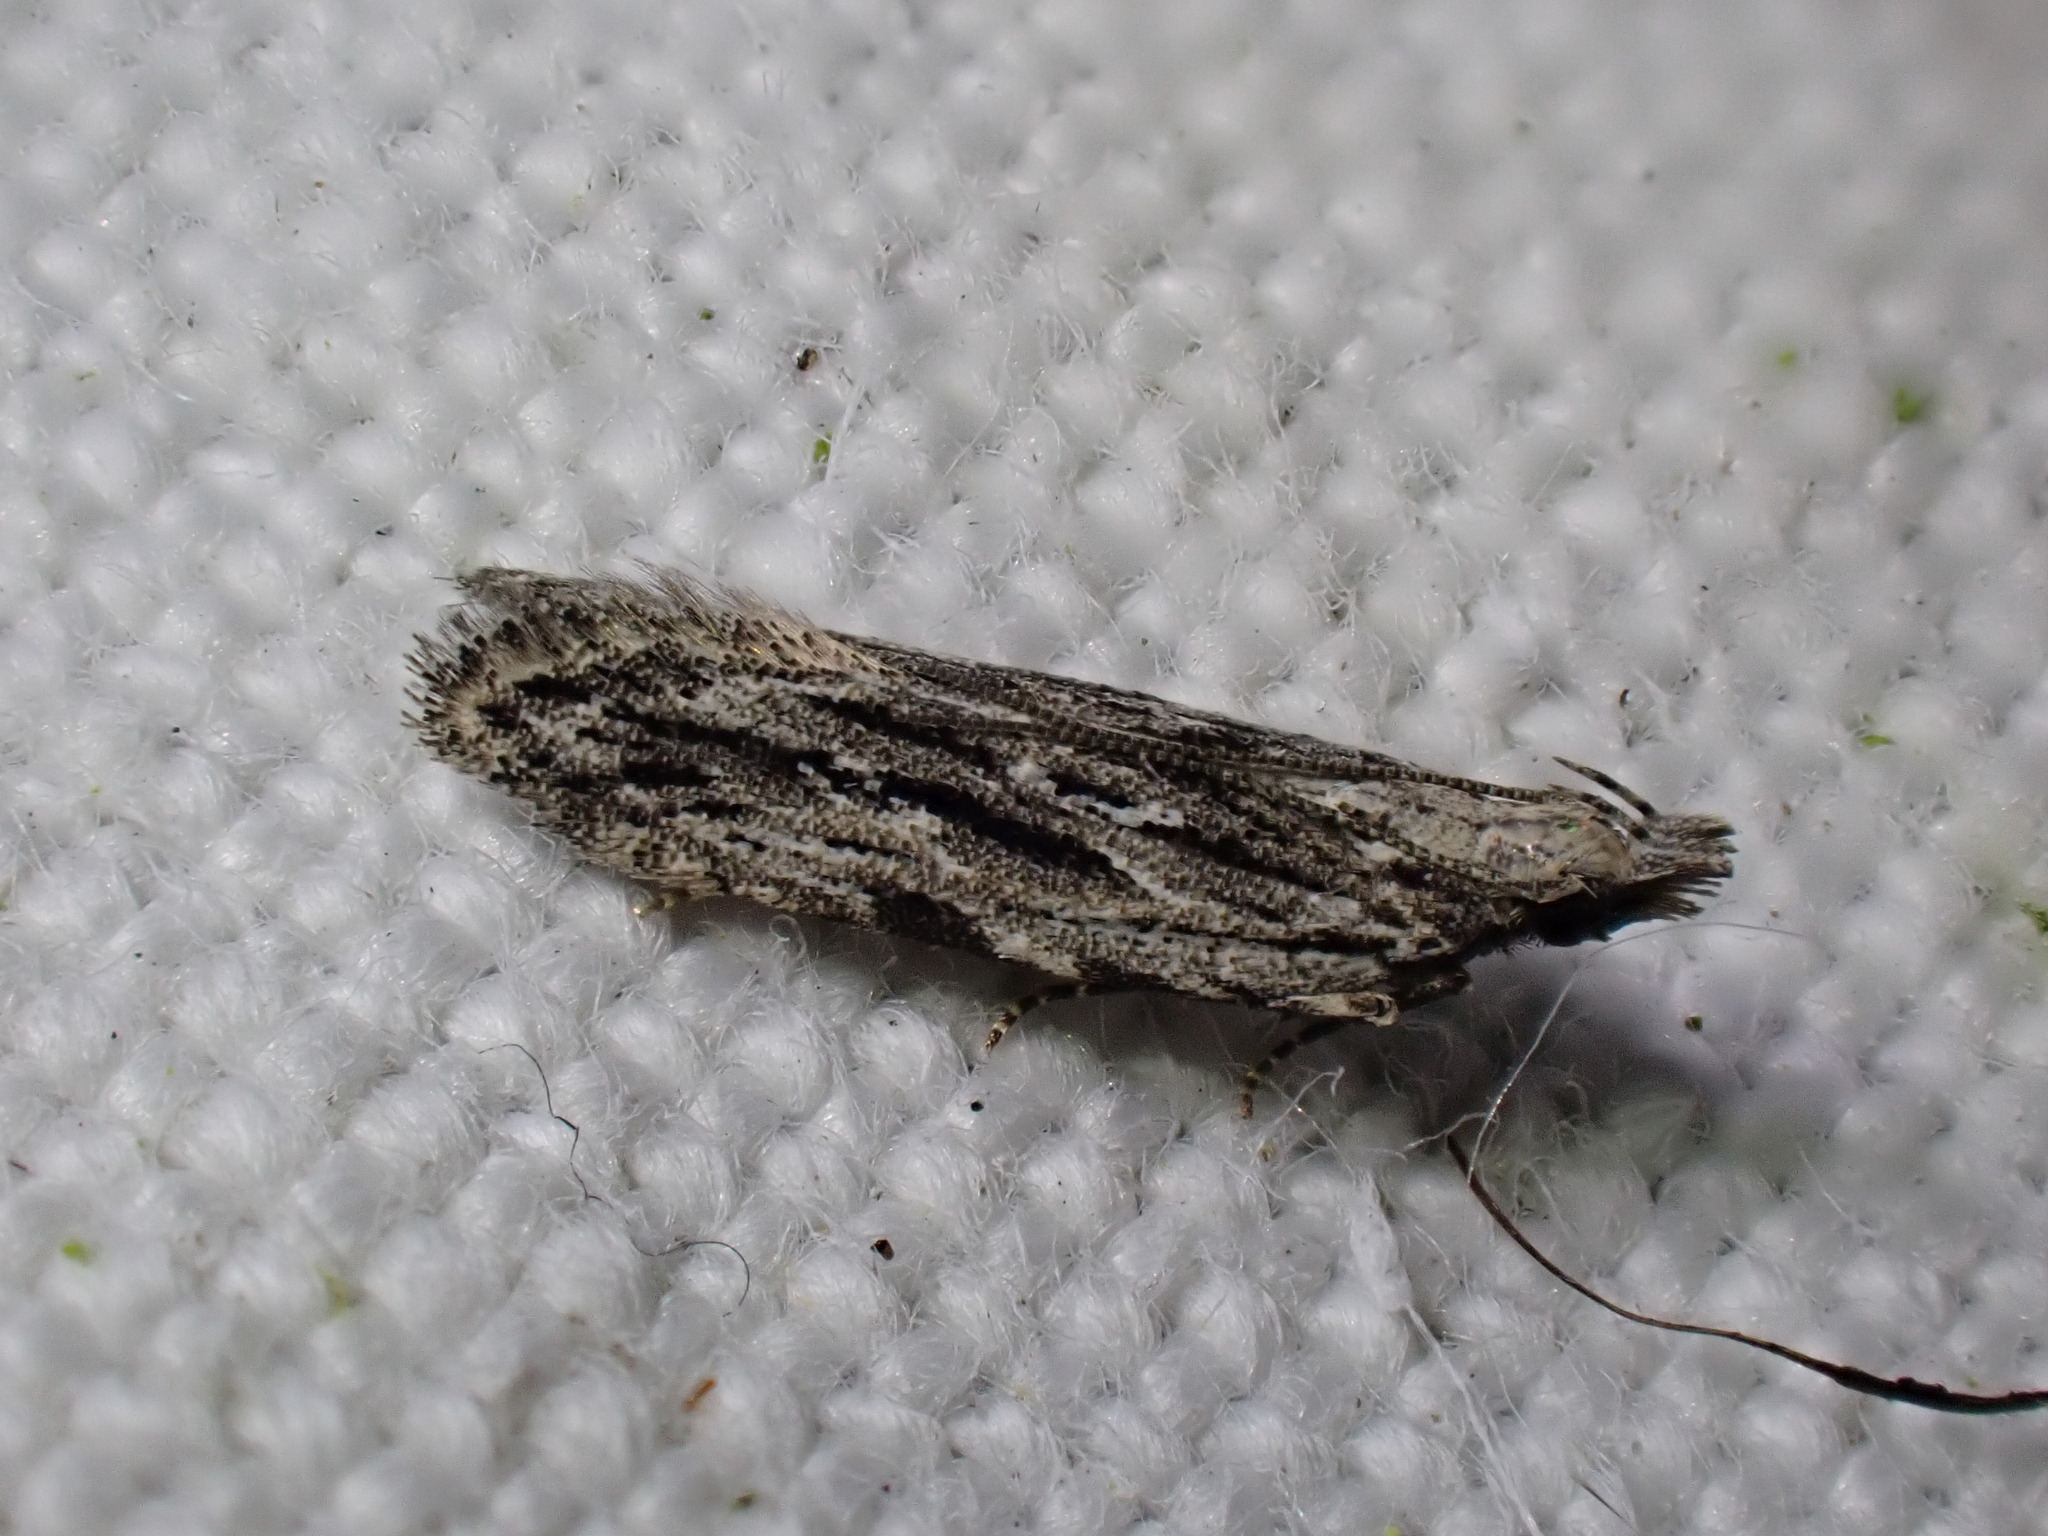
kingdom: Animalia
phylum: Arthropoda
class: Insecta
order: Lepidoptera
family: Gelechiidae
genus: Anarsia
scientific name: Anarsia innoxiella
